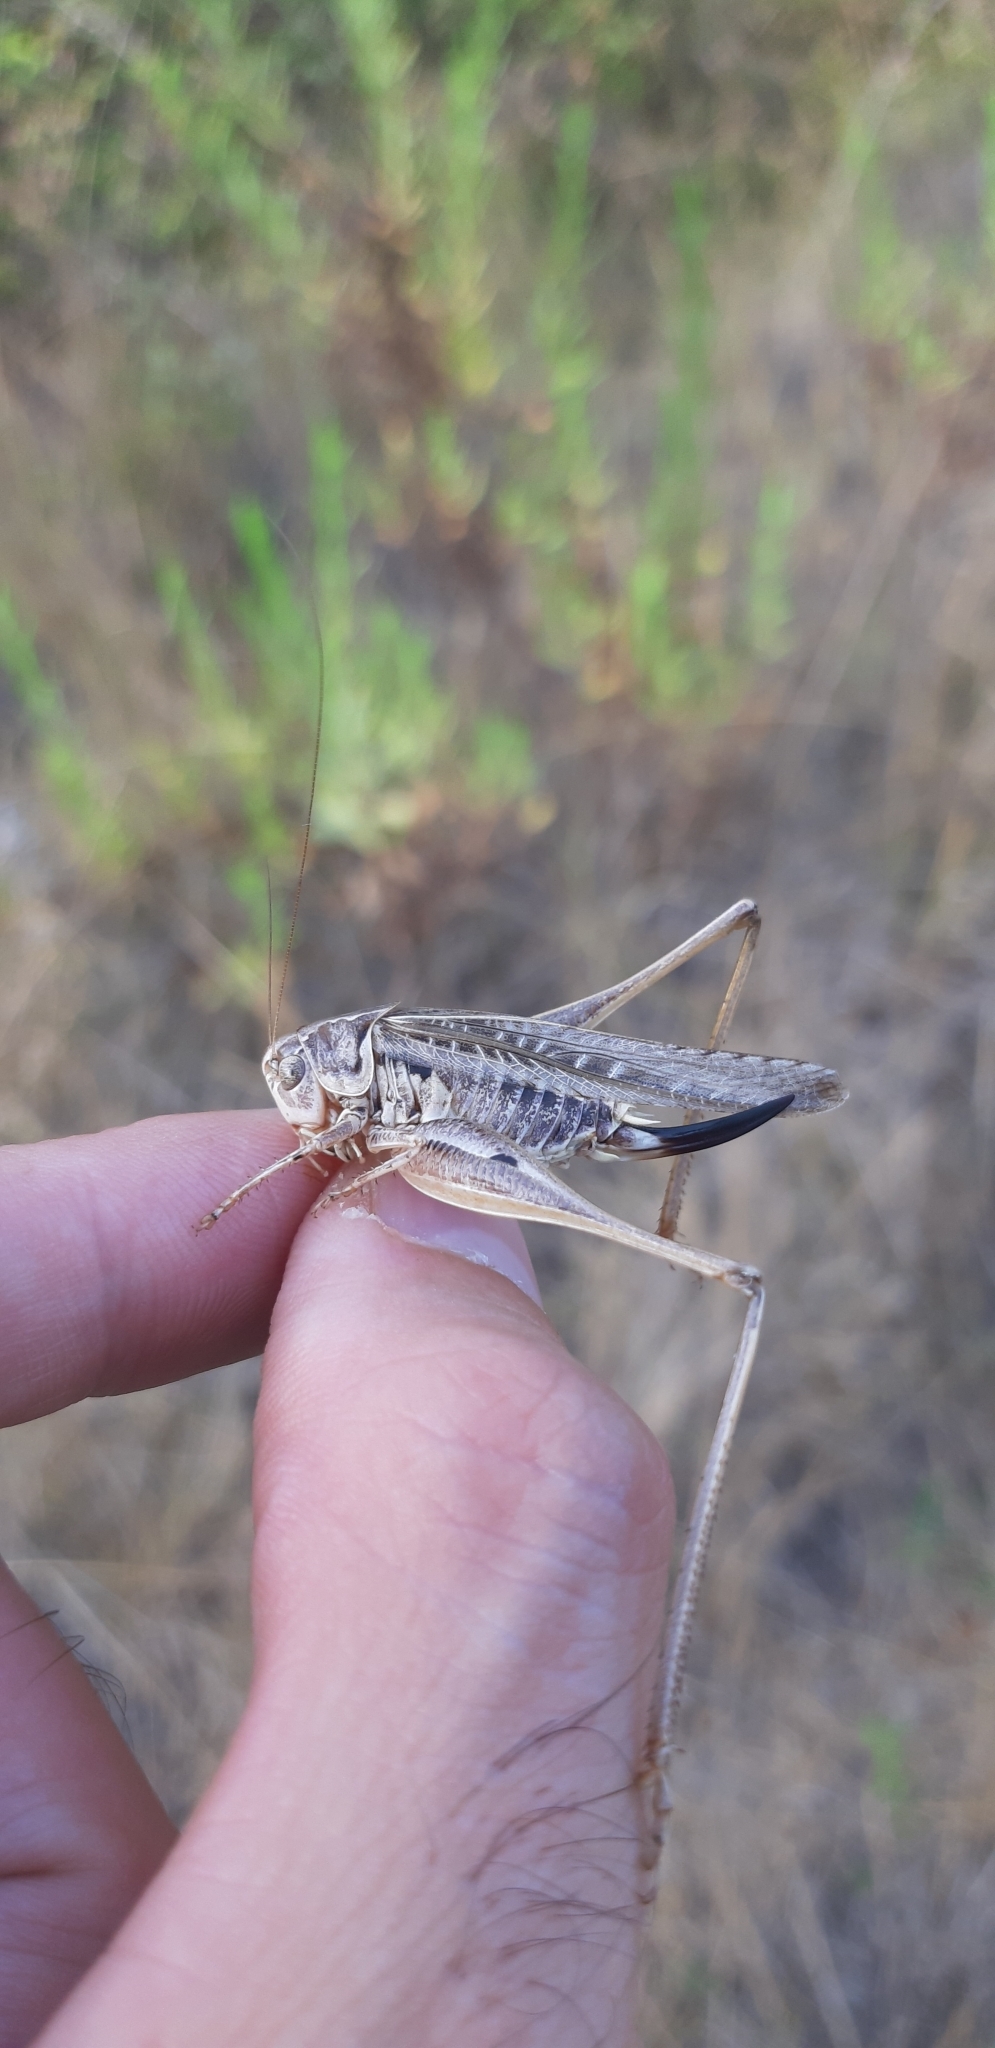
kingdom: Animalia
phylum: Arthropoda
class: Insecta
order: Orthoptera
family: Tettigoniidae
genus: Platycleis
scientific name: Platycleis affinis
